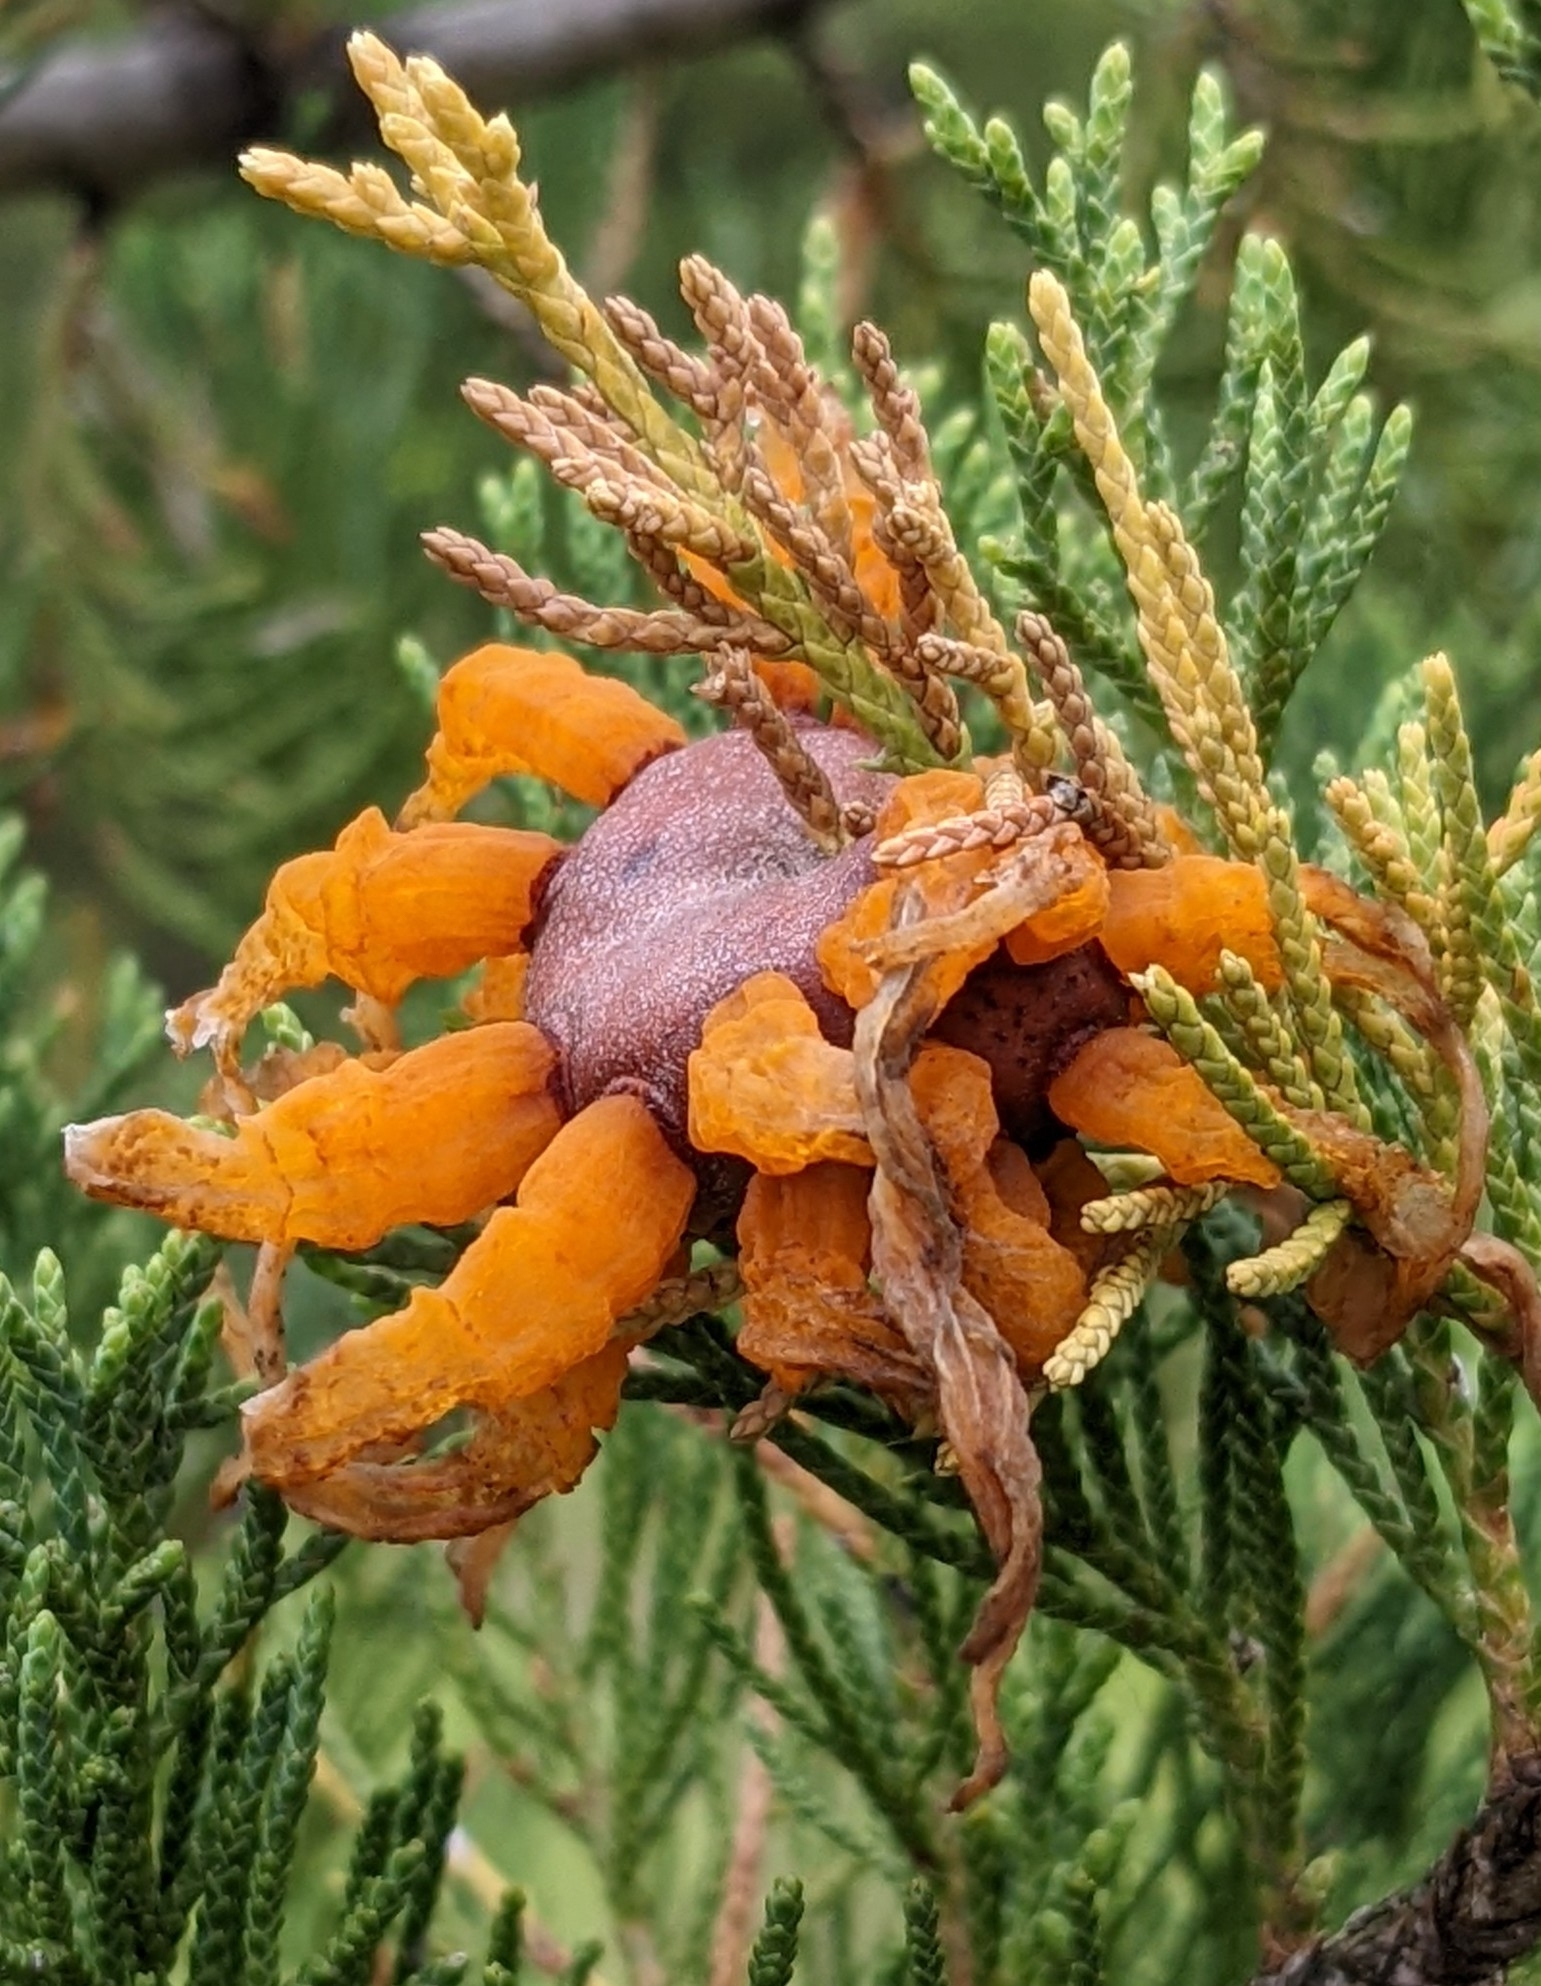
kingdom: Fungi
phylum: Basidiomycota
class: Pucciniomycetes
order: Pucciniales
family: Gymnosporangiaceae
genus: Gymnosporangium
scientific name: Gymnosporangium juniperi-virginianae
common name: Juniper-apple rust
